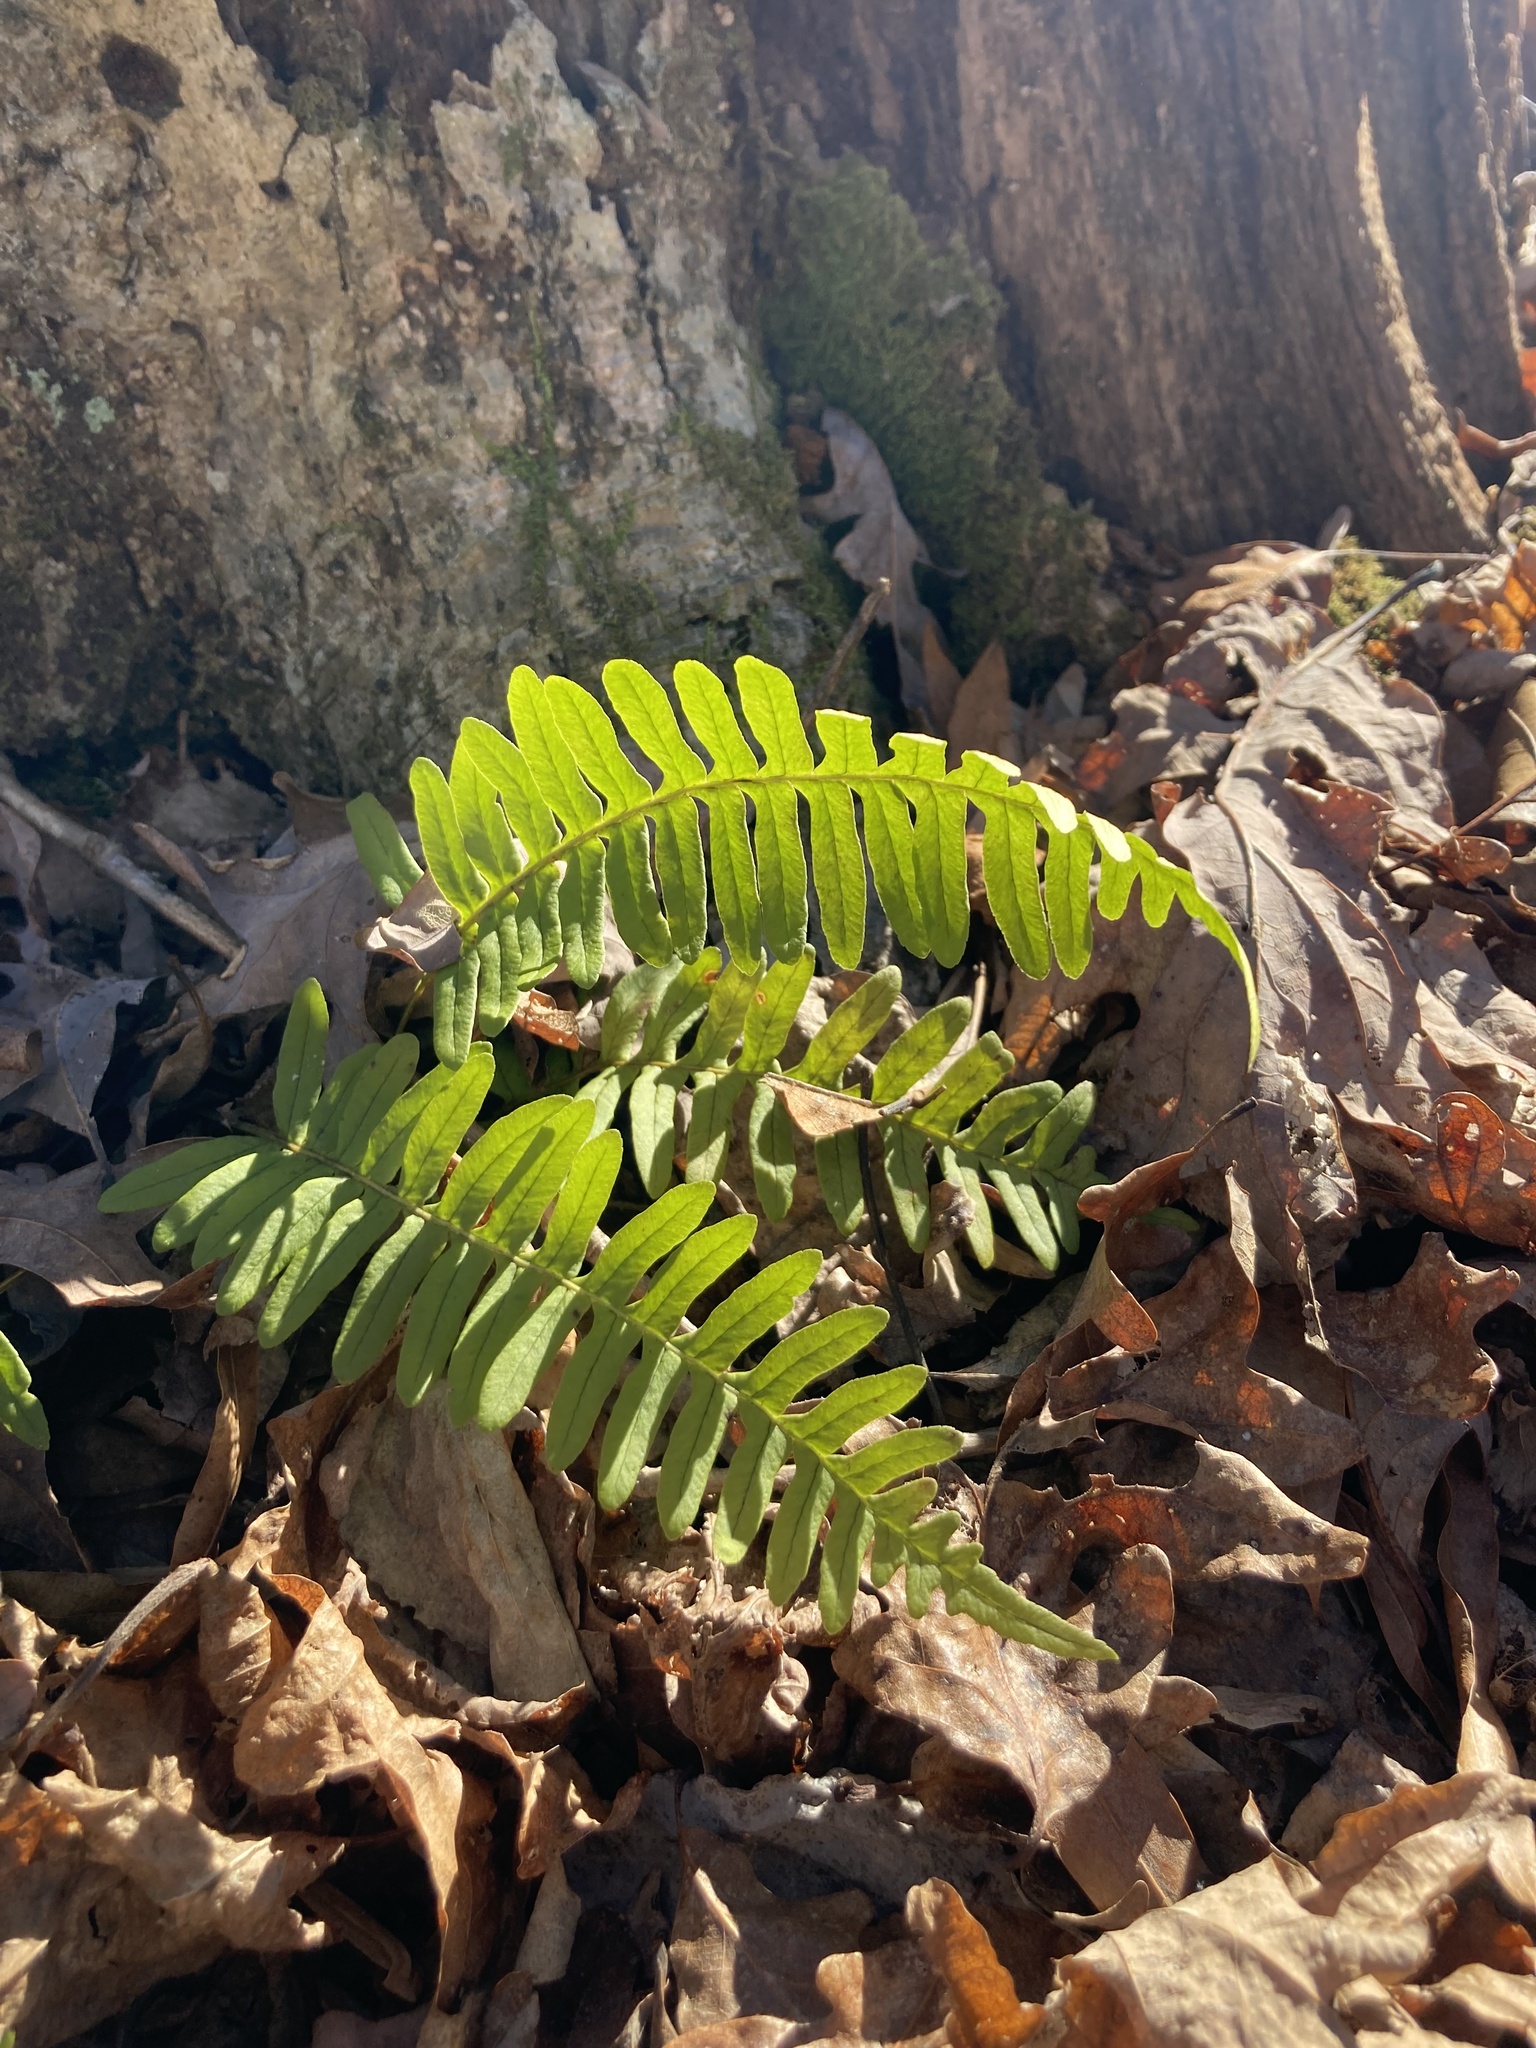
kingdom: Plantae
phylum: Tracheophyta
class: Polypodiopsida
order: Polypodiales
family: Polypodiaceae
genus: Polypodium
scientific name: Polypodium virginianum
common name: American wall fern
